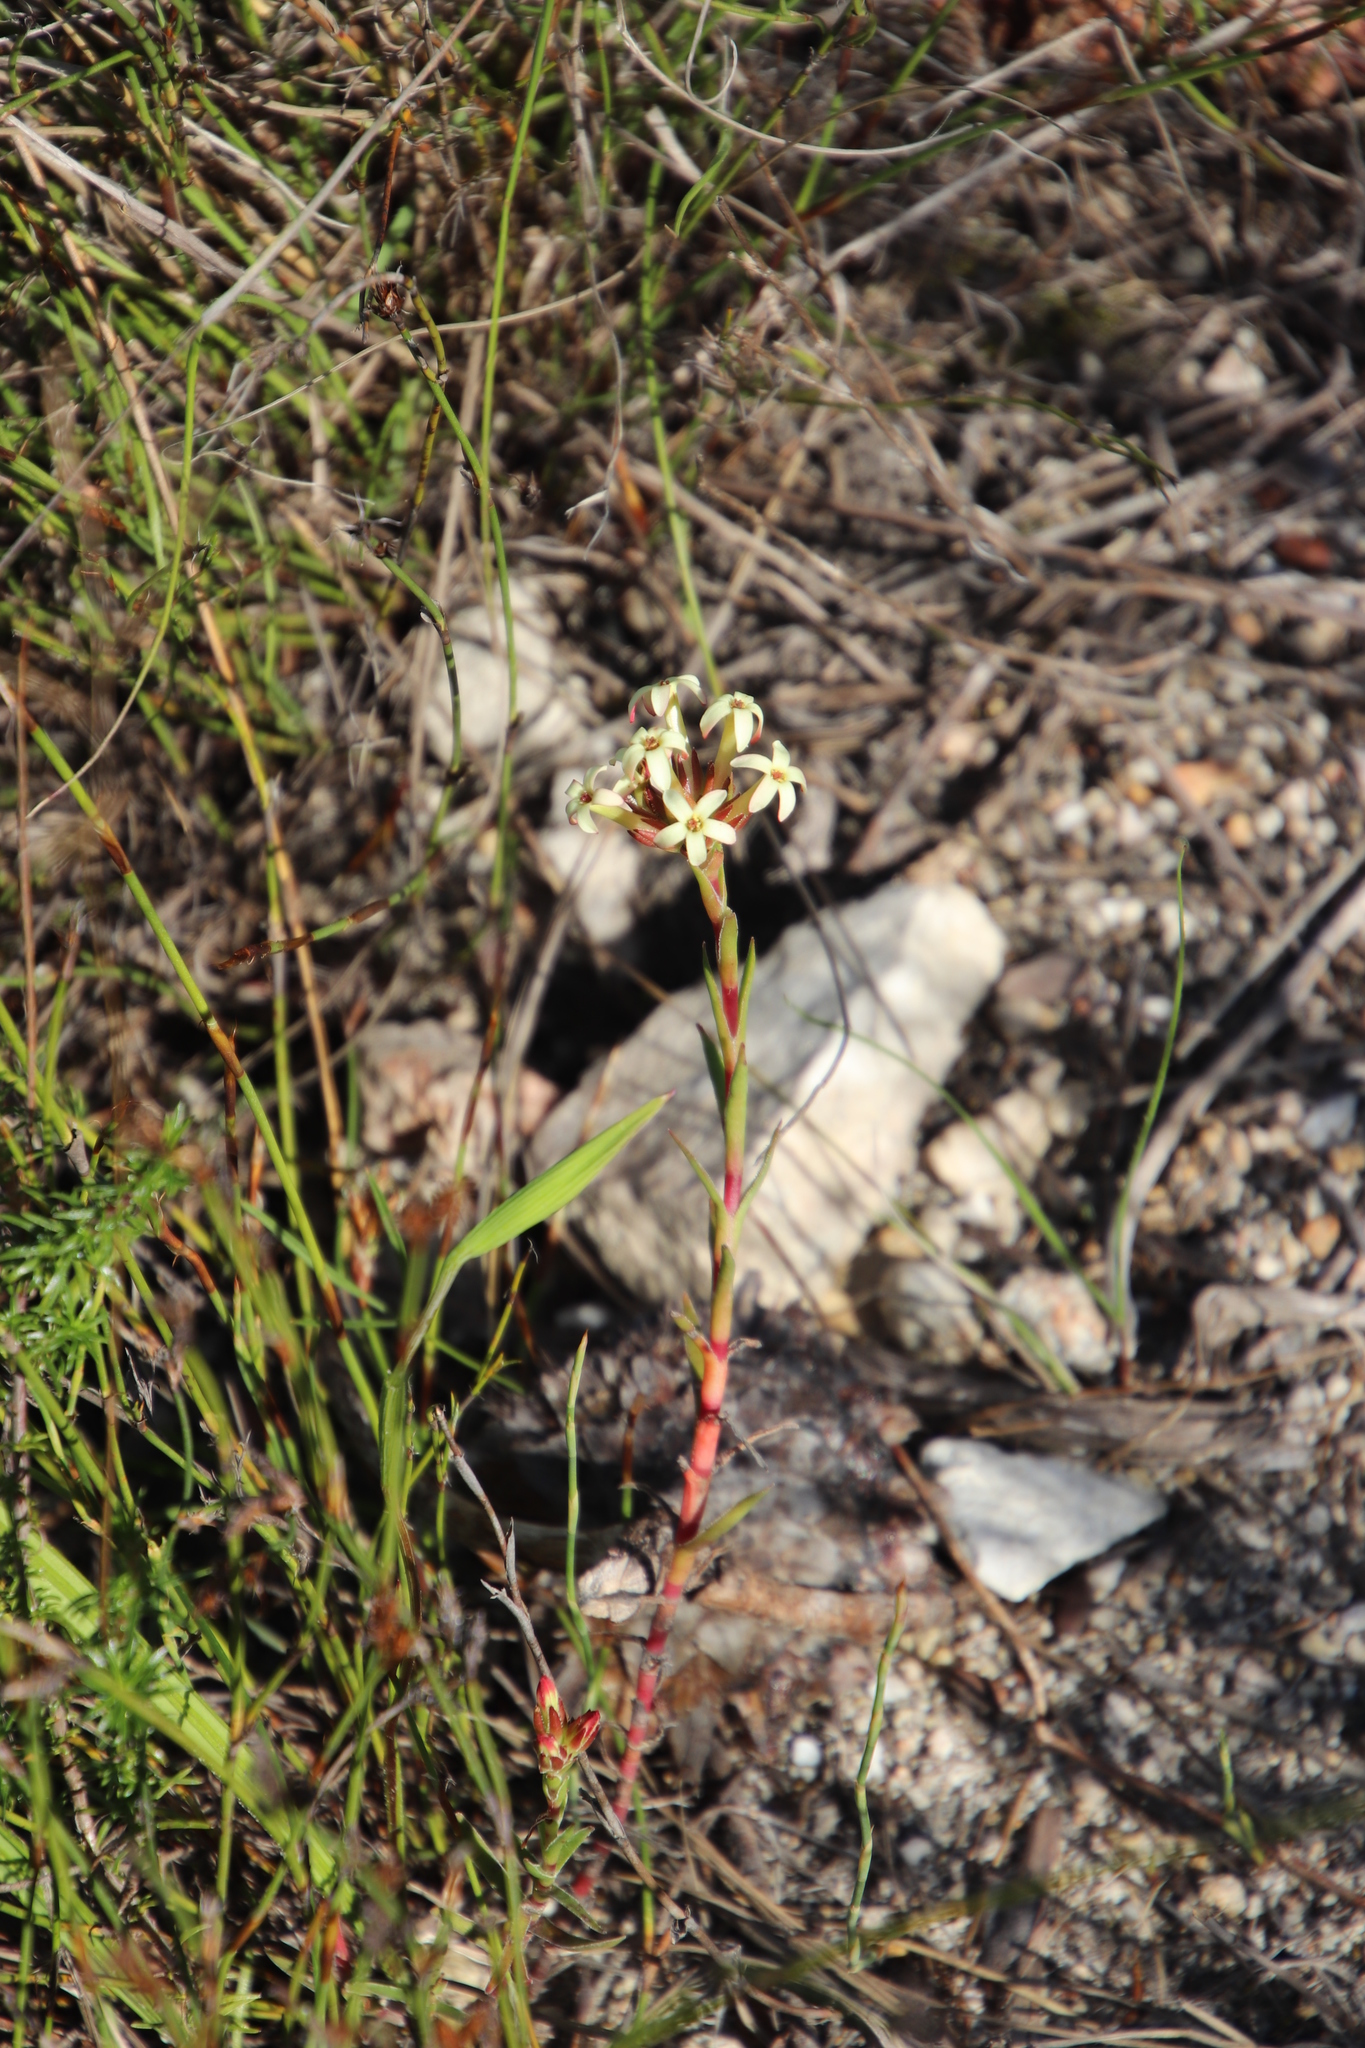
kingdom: Plantae
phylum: Tracheophyta
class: Magnoliopsida
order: Saxifragales
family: Crassulaceae
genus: Crassula
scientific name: Crassula fascicularis
